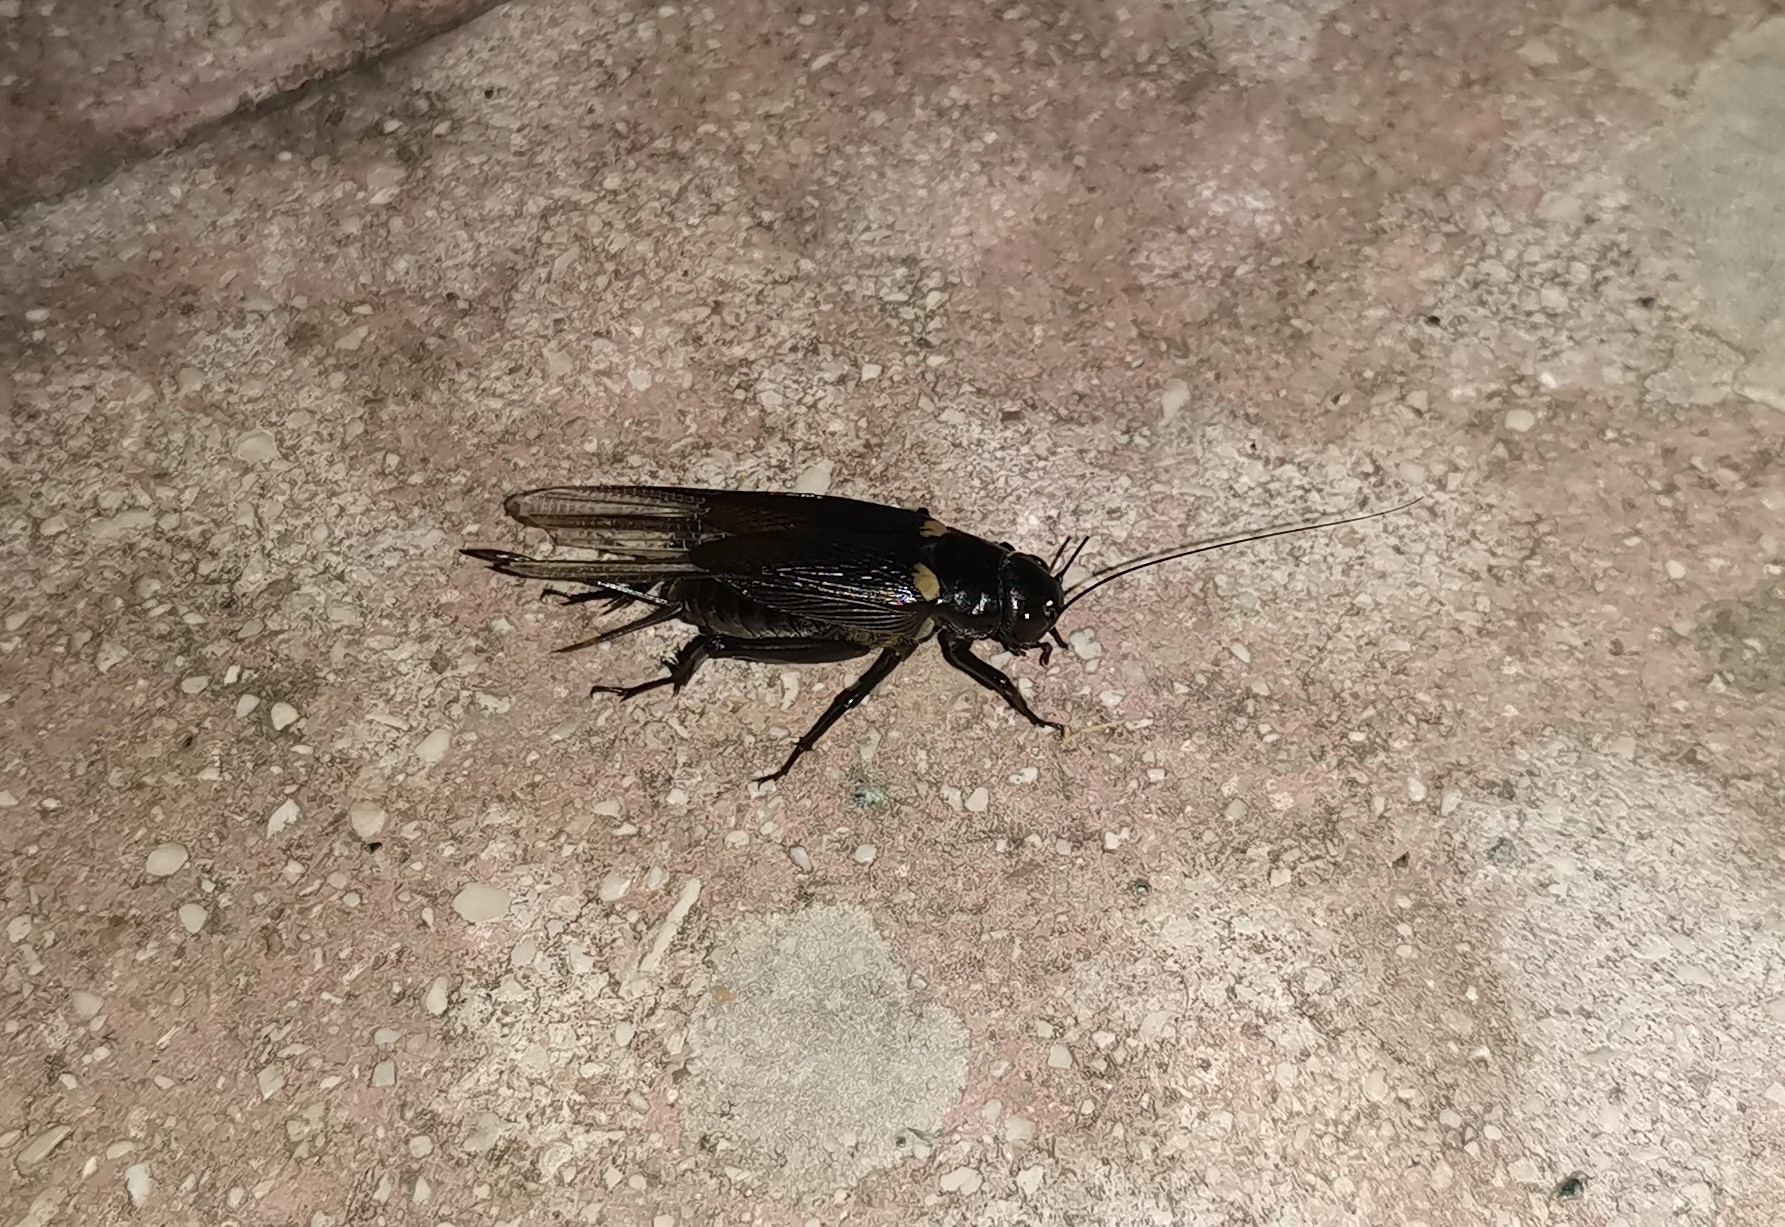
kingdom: Animalia
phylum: Arthropoda
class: Insecta
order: Orthoptera
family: Gryllidae
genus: Gryllus
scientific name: Gryllus bimaculatus
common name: Two-spotted cricket
